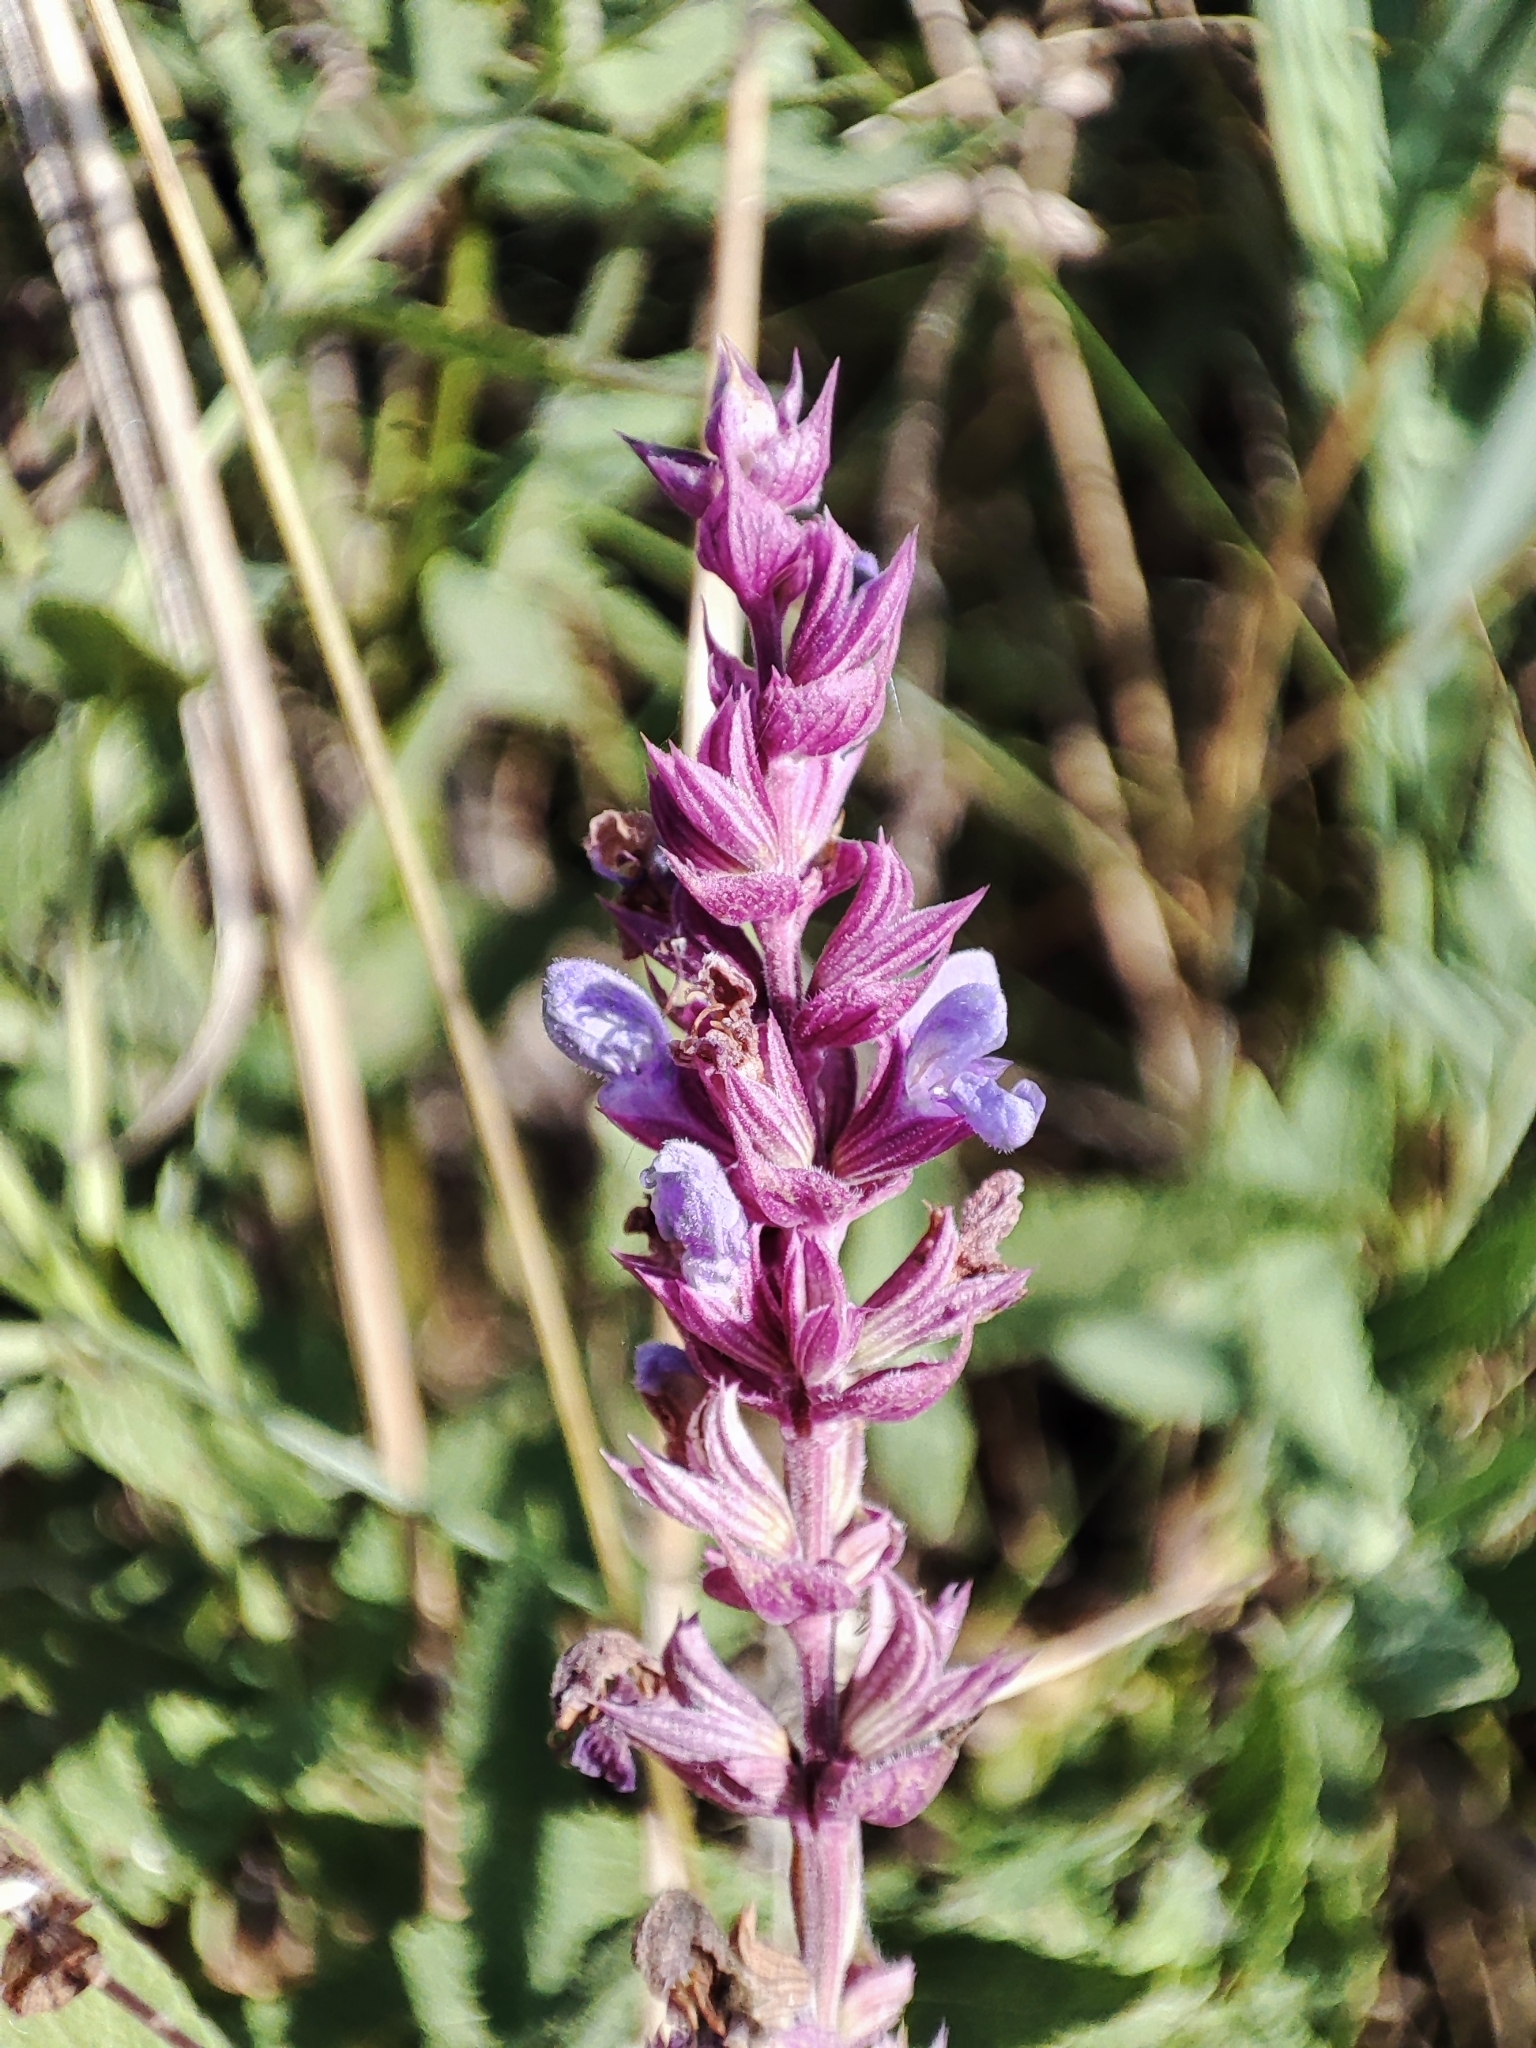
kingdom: Plantae
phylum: Tracheophyta
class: Magnoliopsida
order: Lamiales
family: Lamiaceae
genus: Salvia
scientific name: Salvia nemorosa
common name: Balkan clary
